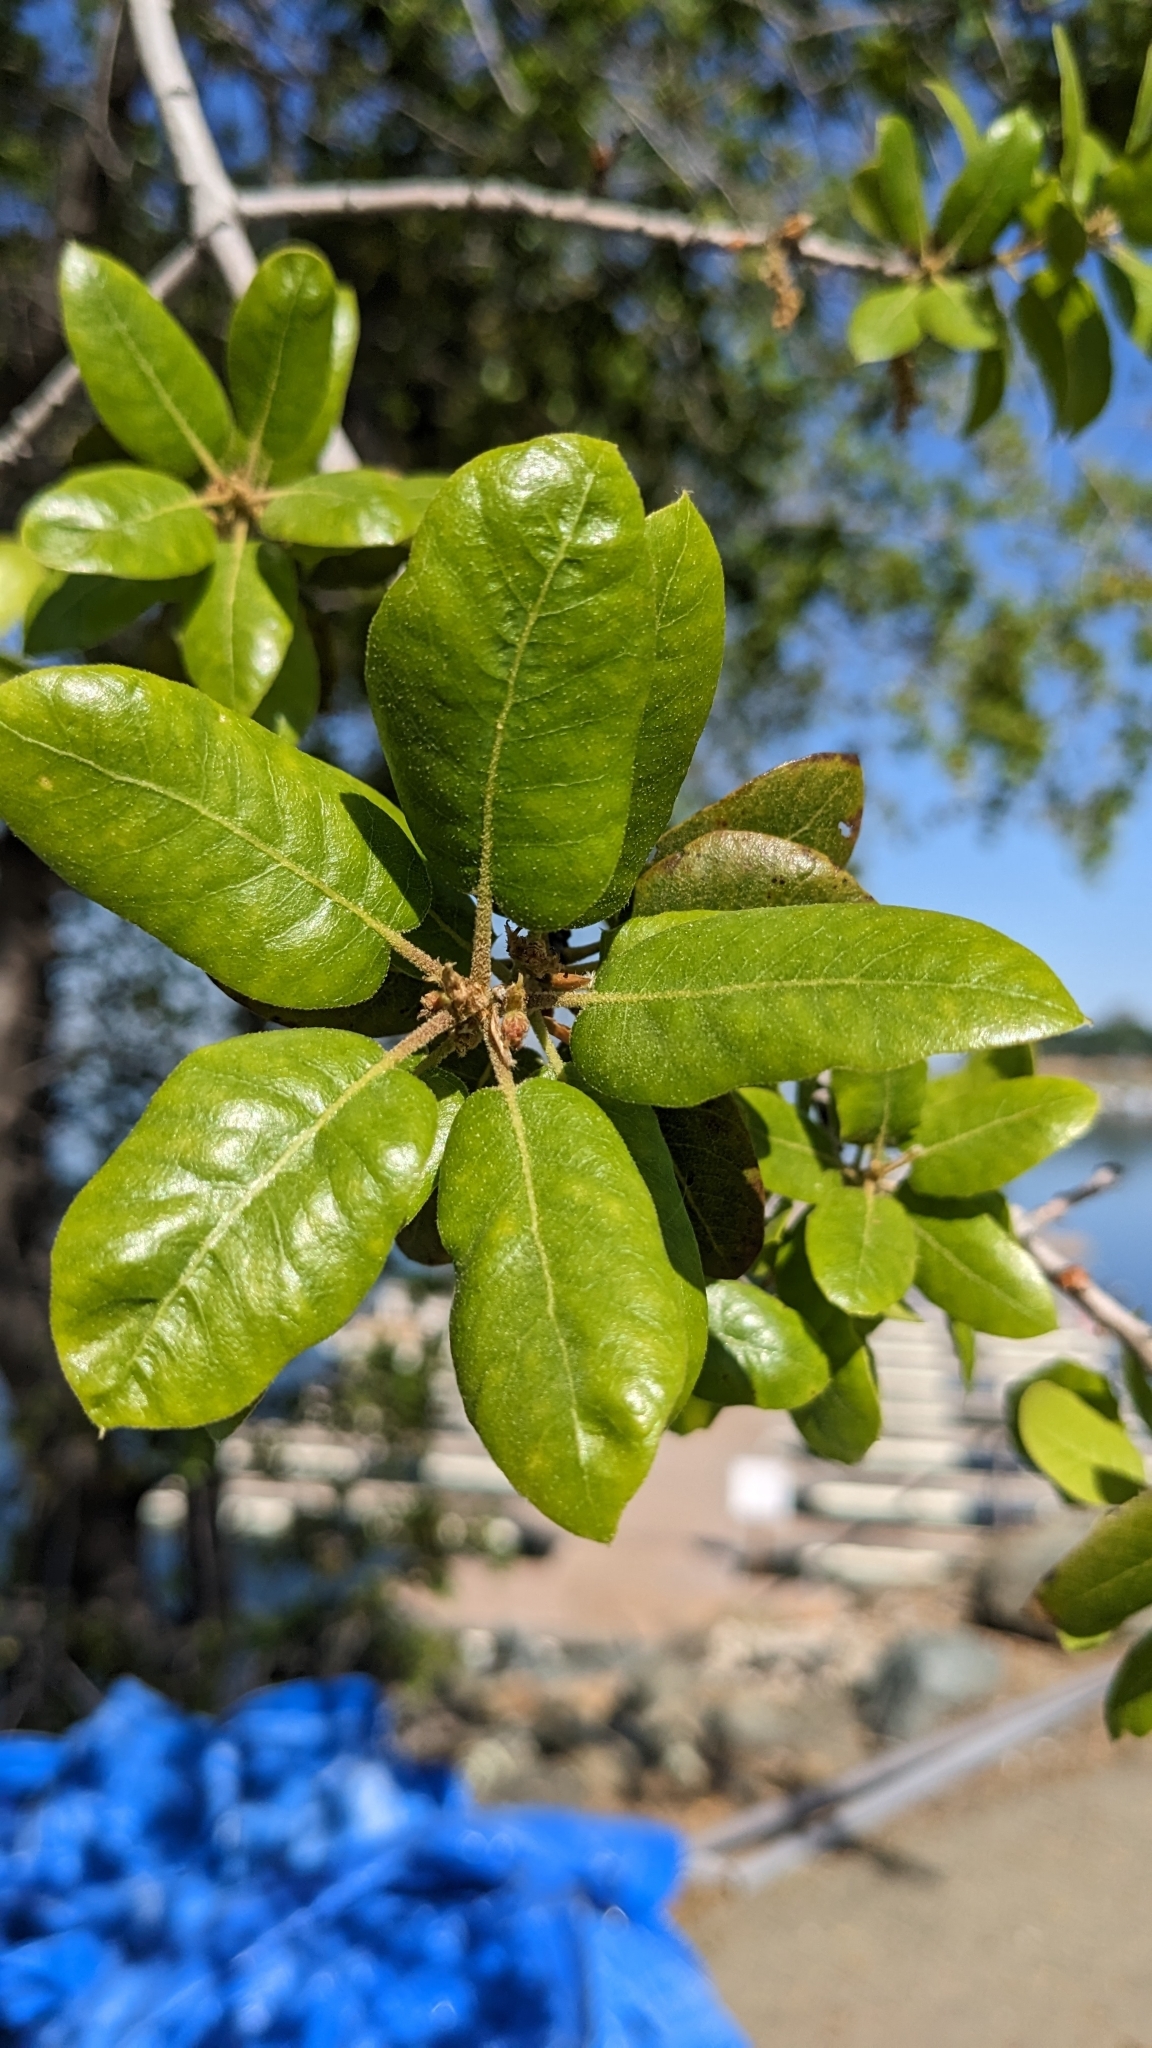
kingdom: Plantae
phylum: Tracheophyta
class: Magnoliopsida
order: Fagales
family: Fagaceae
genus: Quercus
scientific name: Quercus wislizeni
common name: Interior live oak
